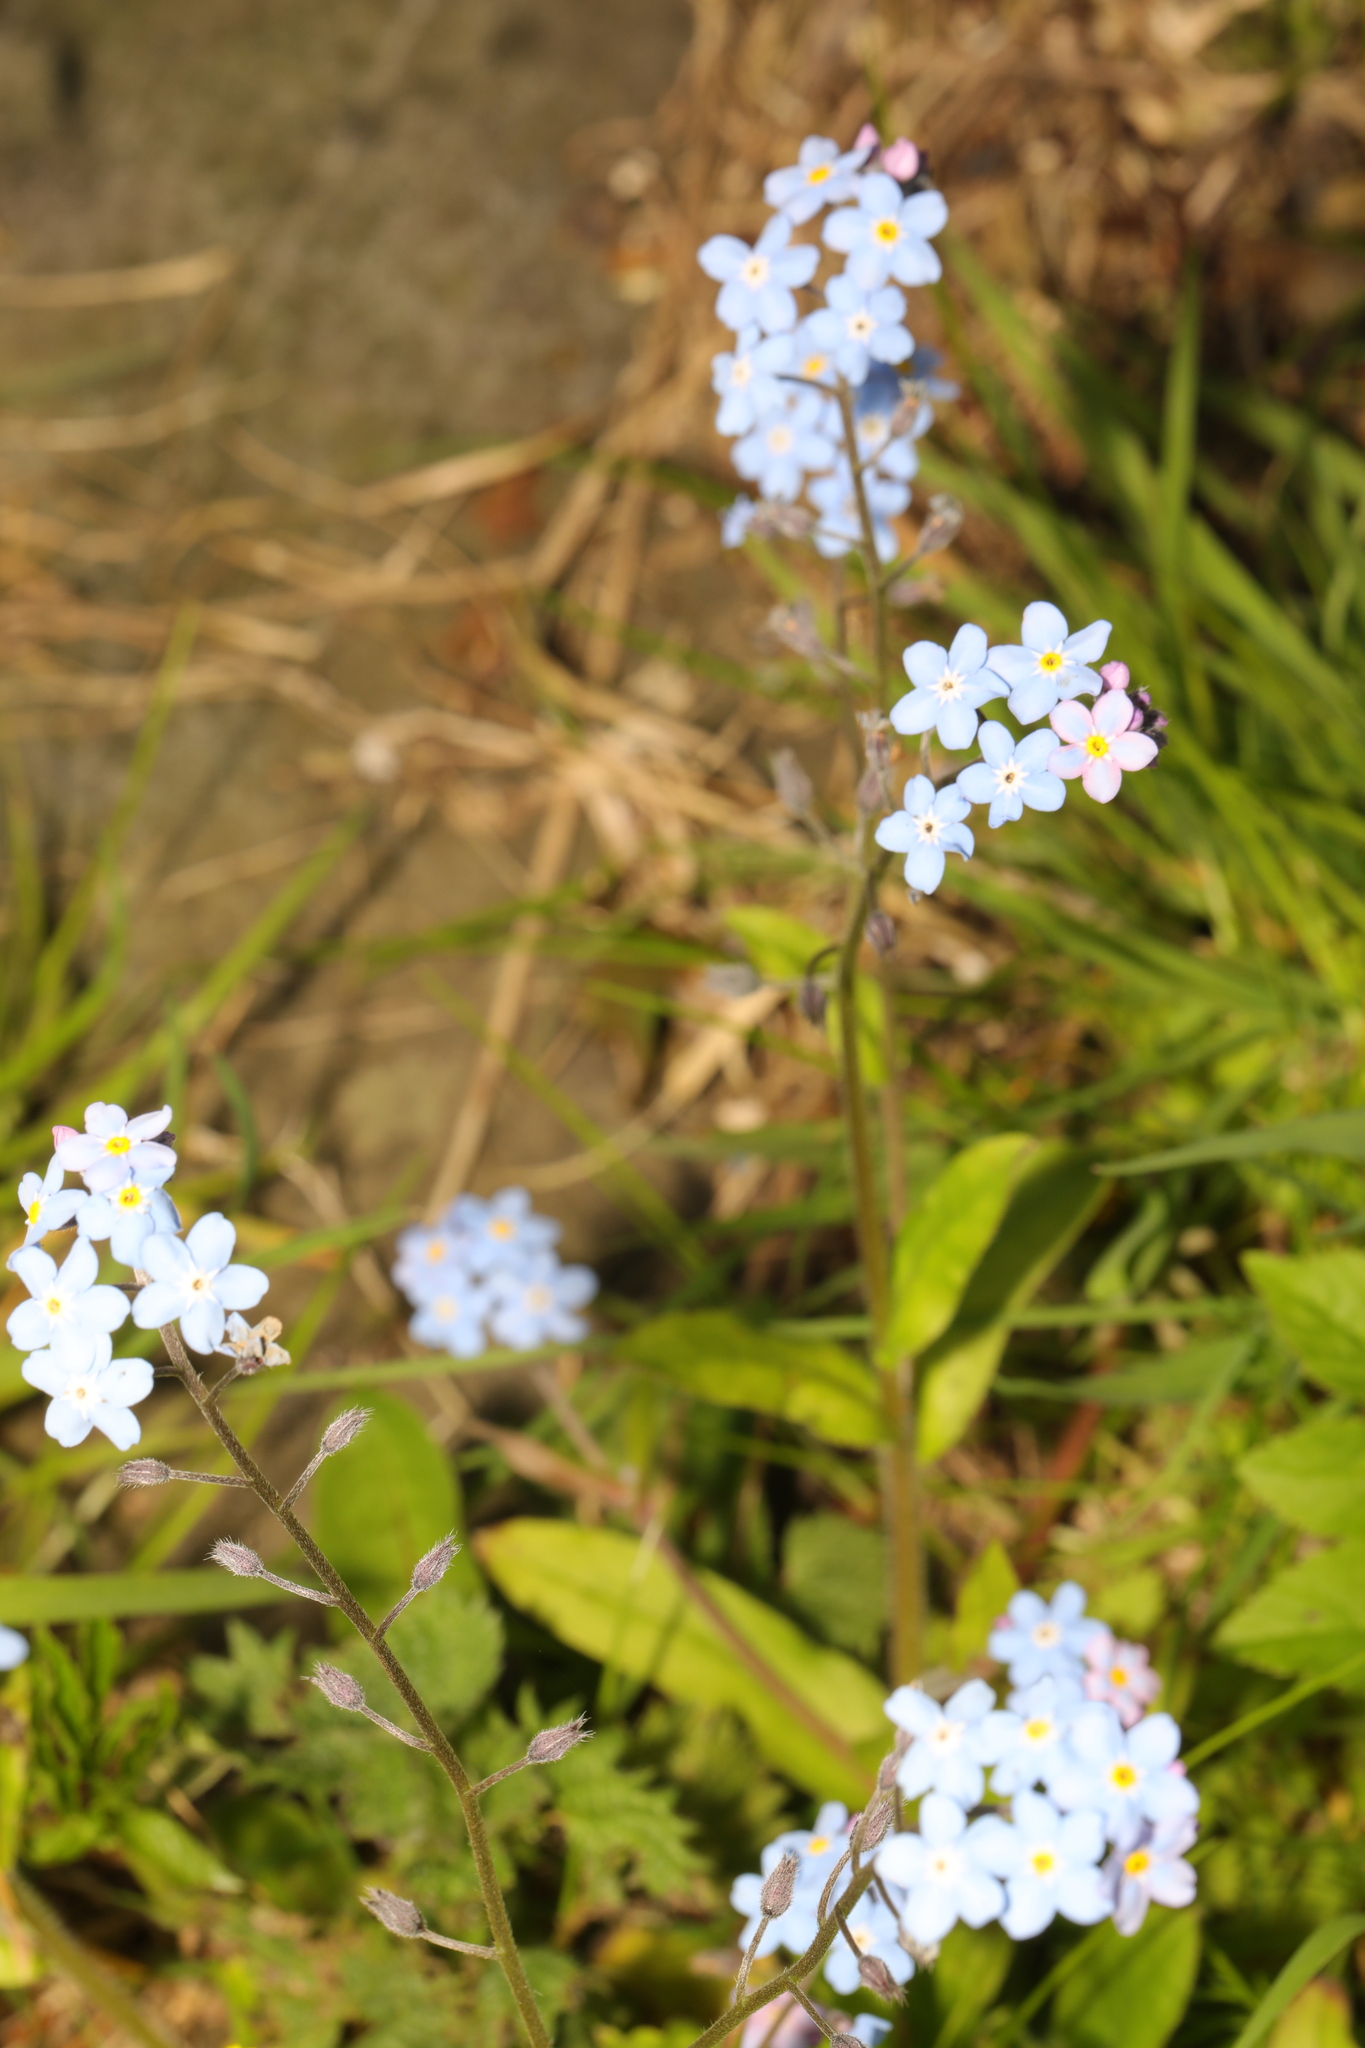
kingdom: Plantae
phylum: Tracheophyta
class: Magnoliopsida
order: Boraginales
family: Boraginaceae
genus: Myosotis
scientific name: Myosotis sylvatica
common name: Wood forget-me-not
